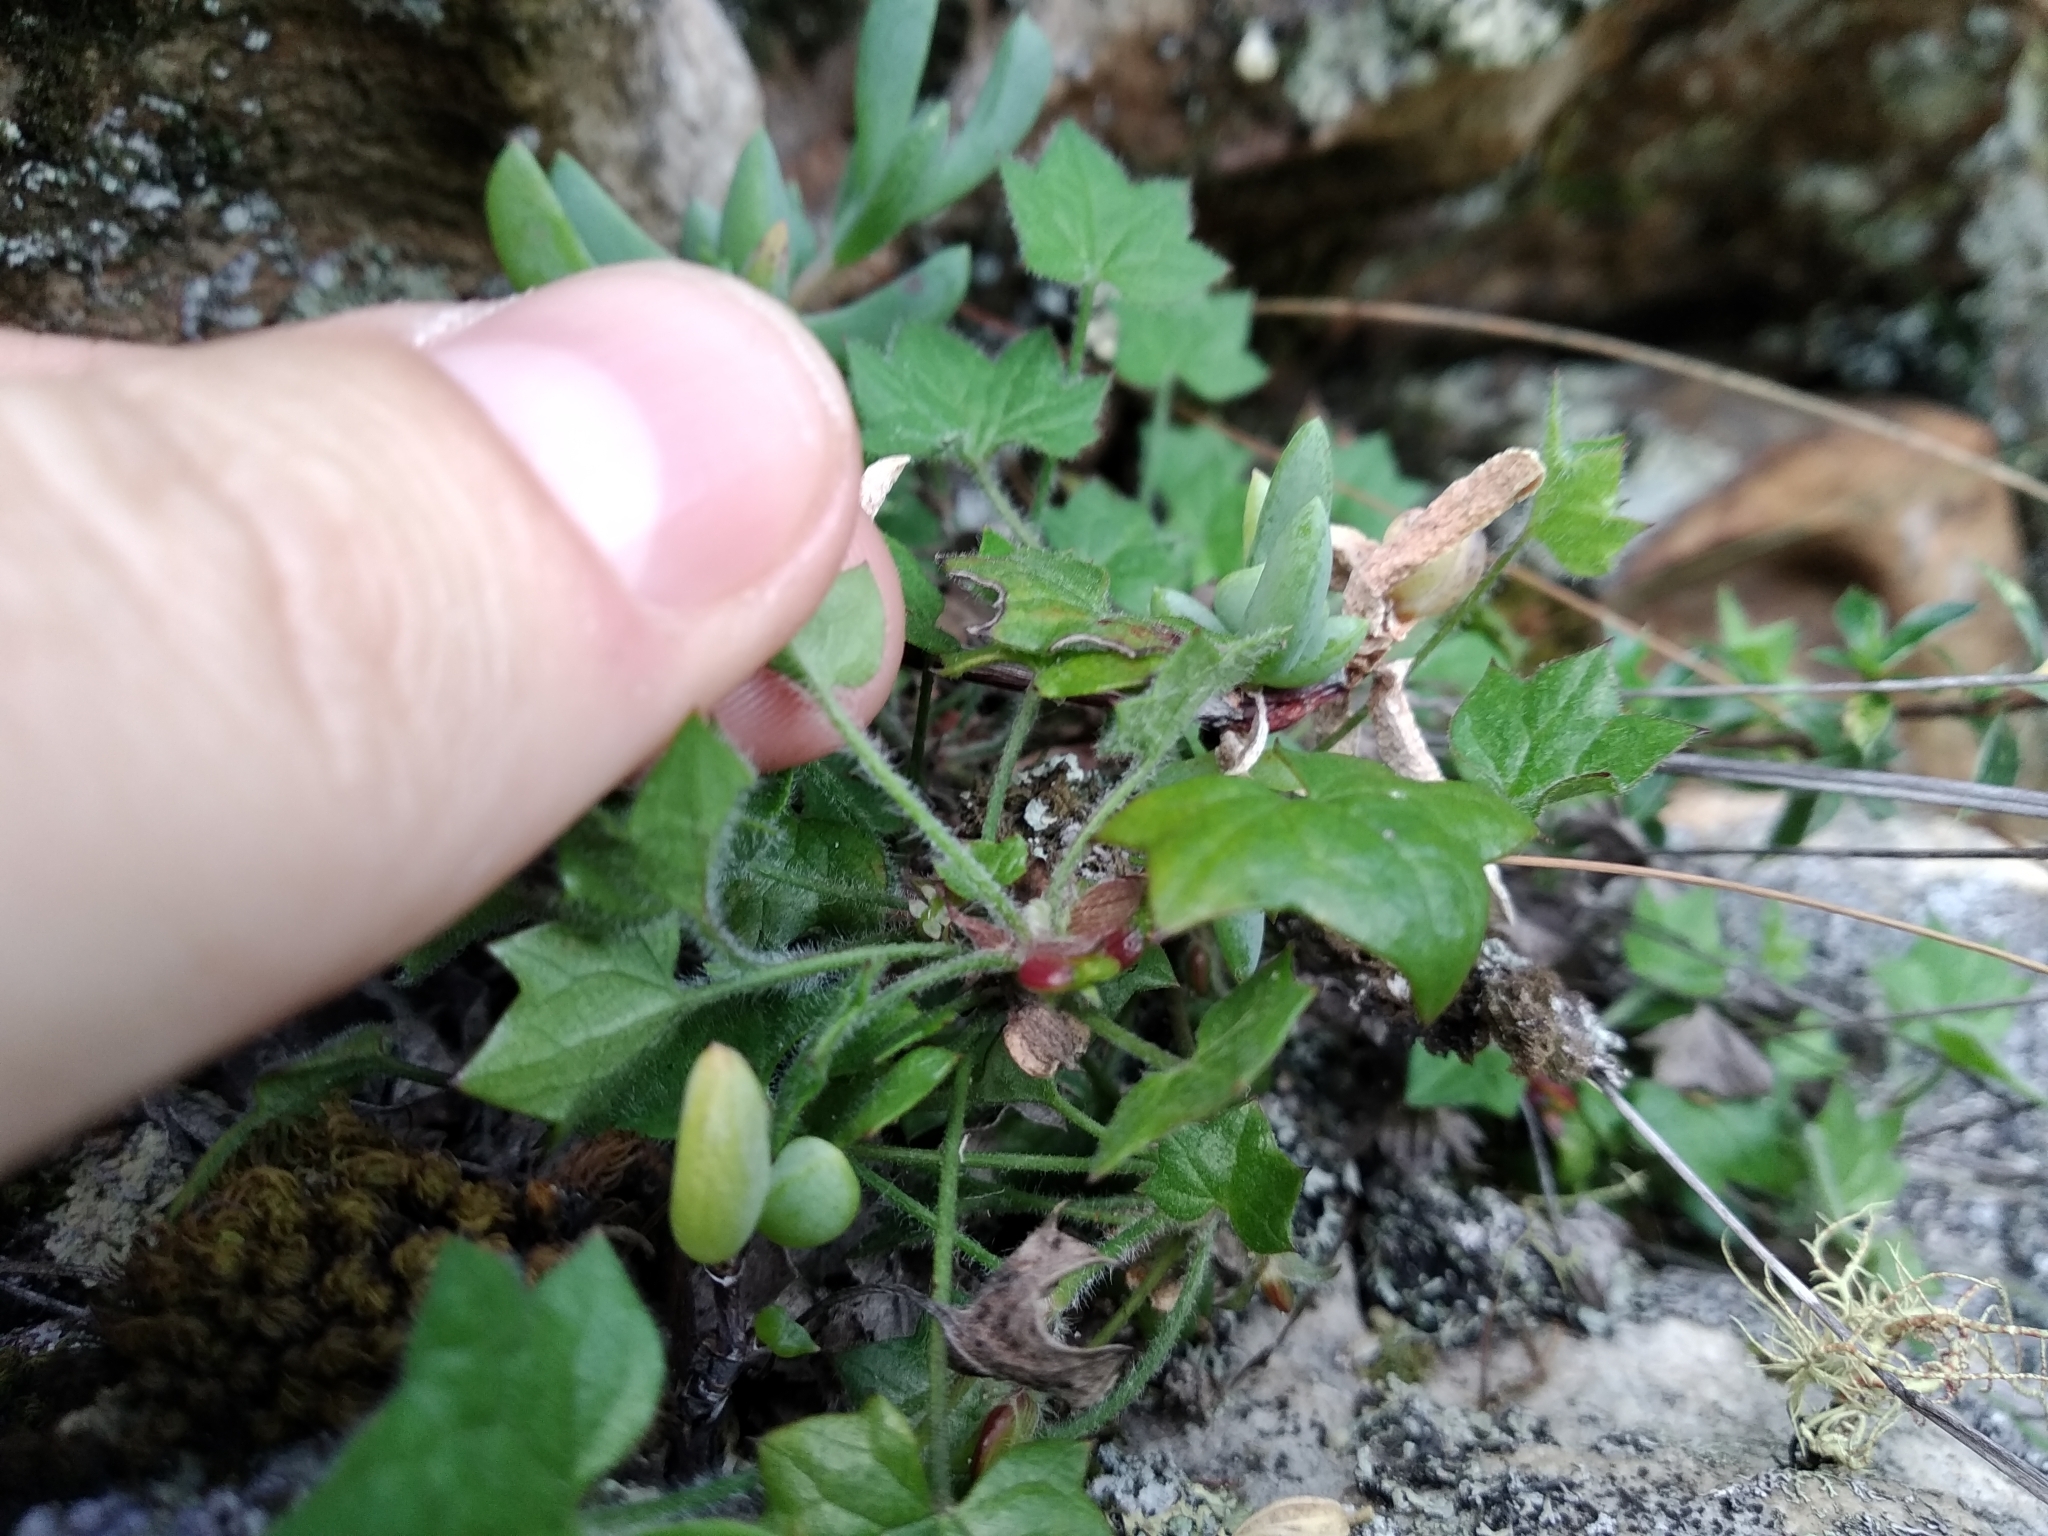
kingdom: Plantae
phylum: Tracheophyta
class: Magnoliopsida
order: Apiales
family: Apiaceae
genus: Centella
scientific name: Centella macroda
